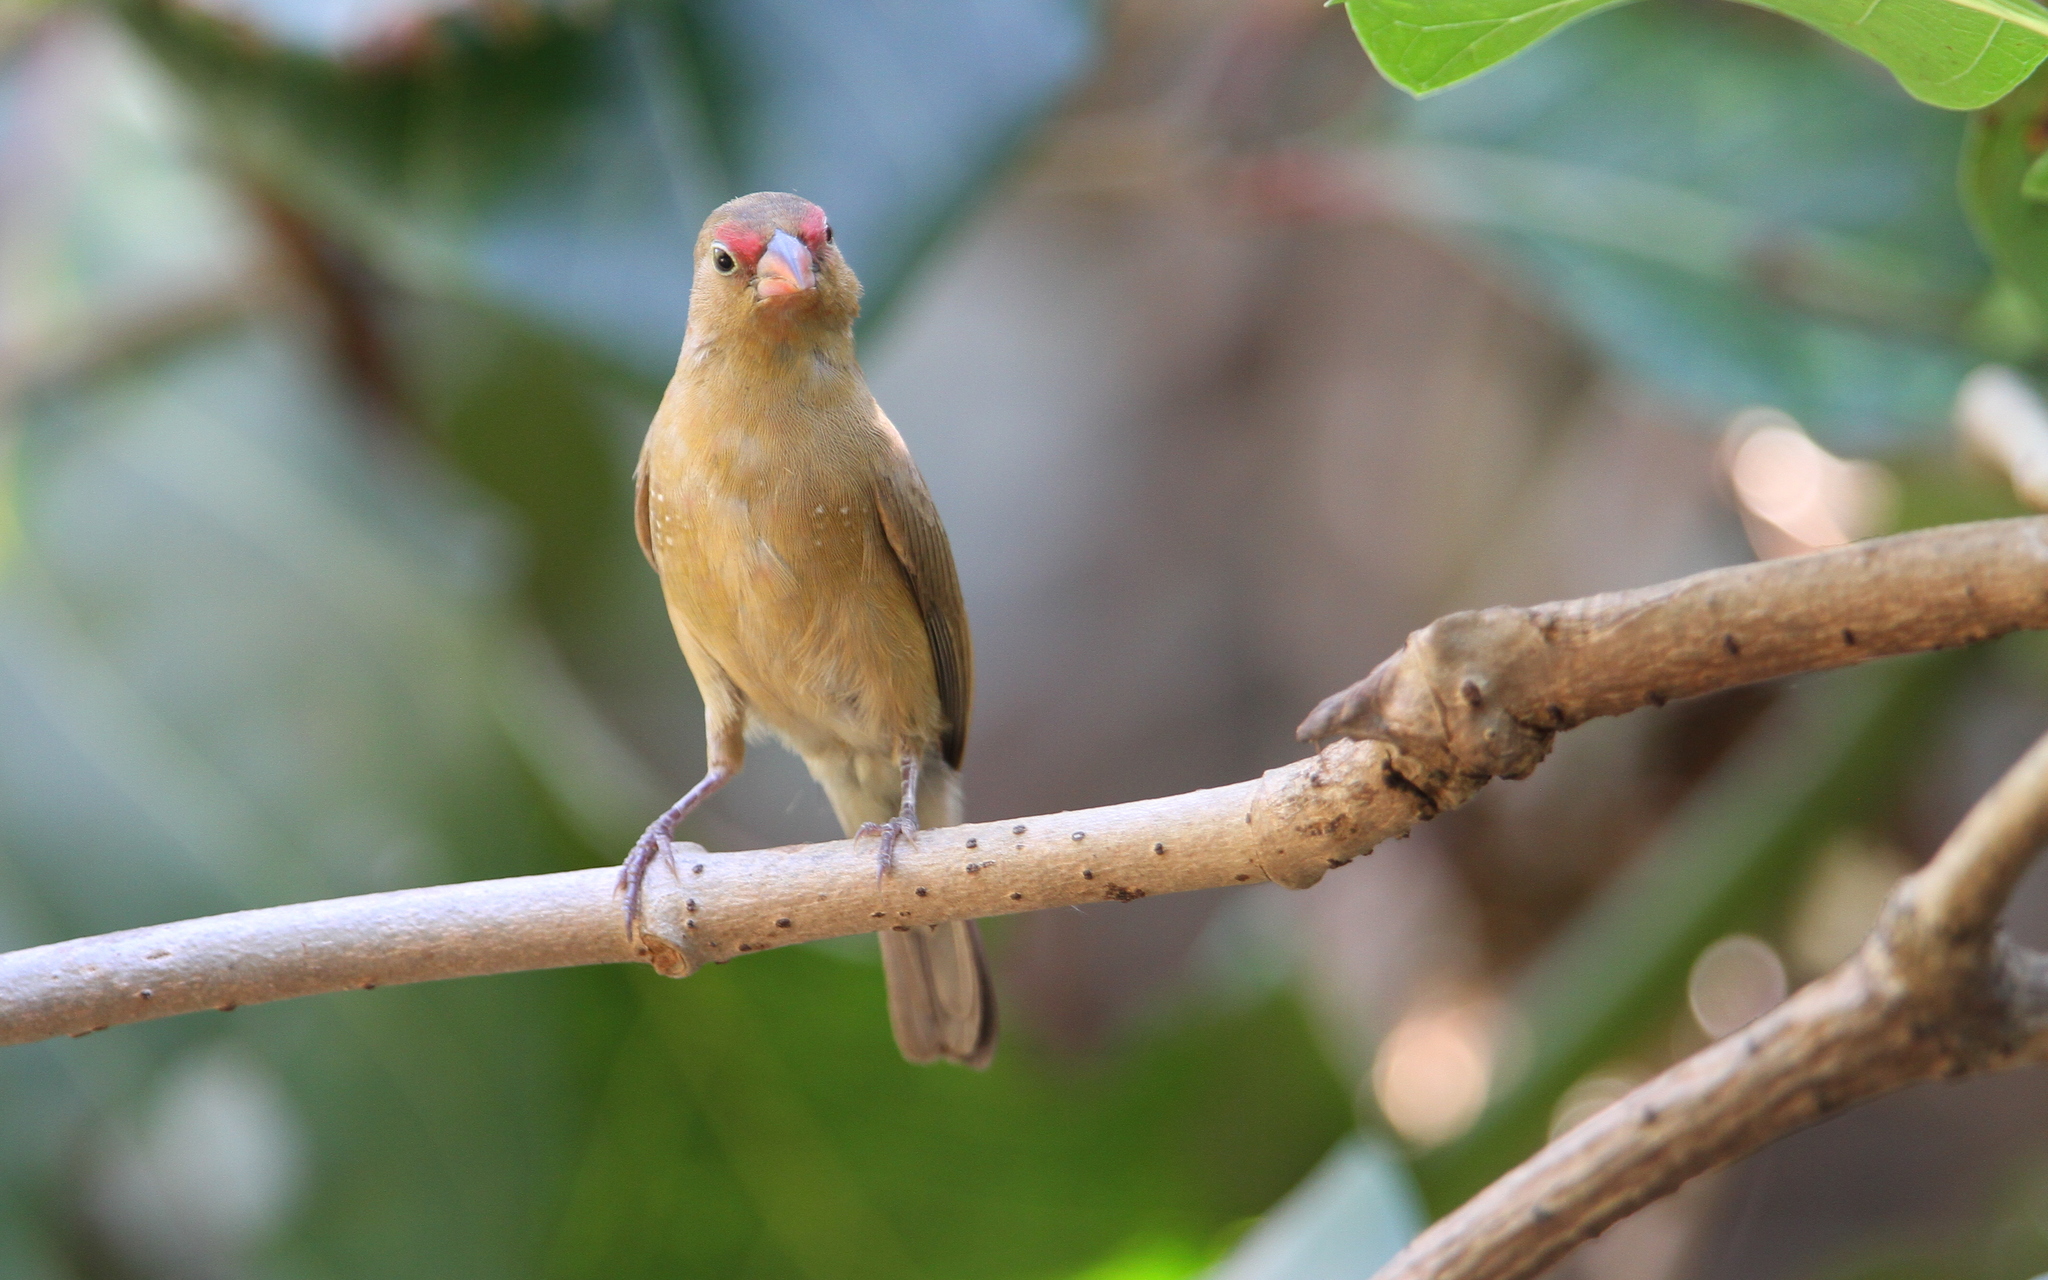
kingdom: Animalia
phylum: Chordata
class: Aves
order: Passeriformes
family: Estrildidae
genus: Lagonosticta
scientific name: Lagonosticta senegala
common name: Red-billed firefinch
